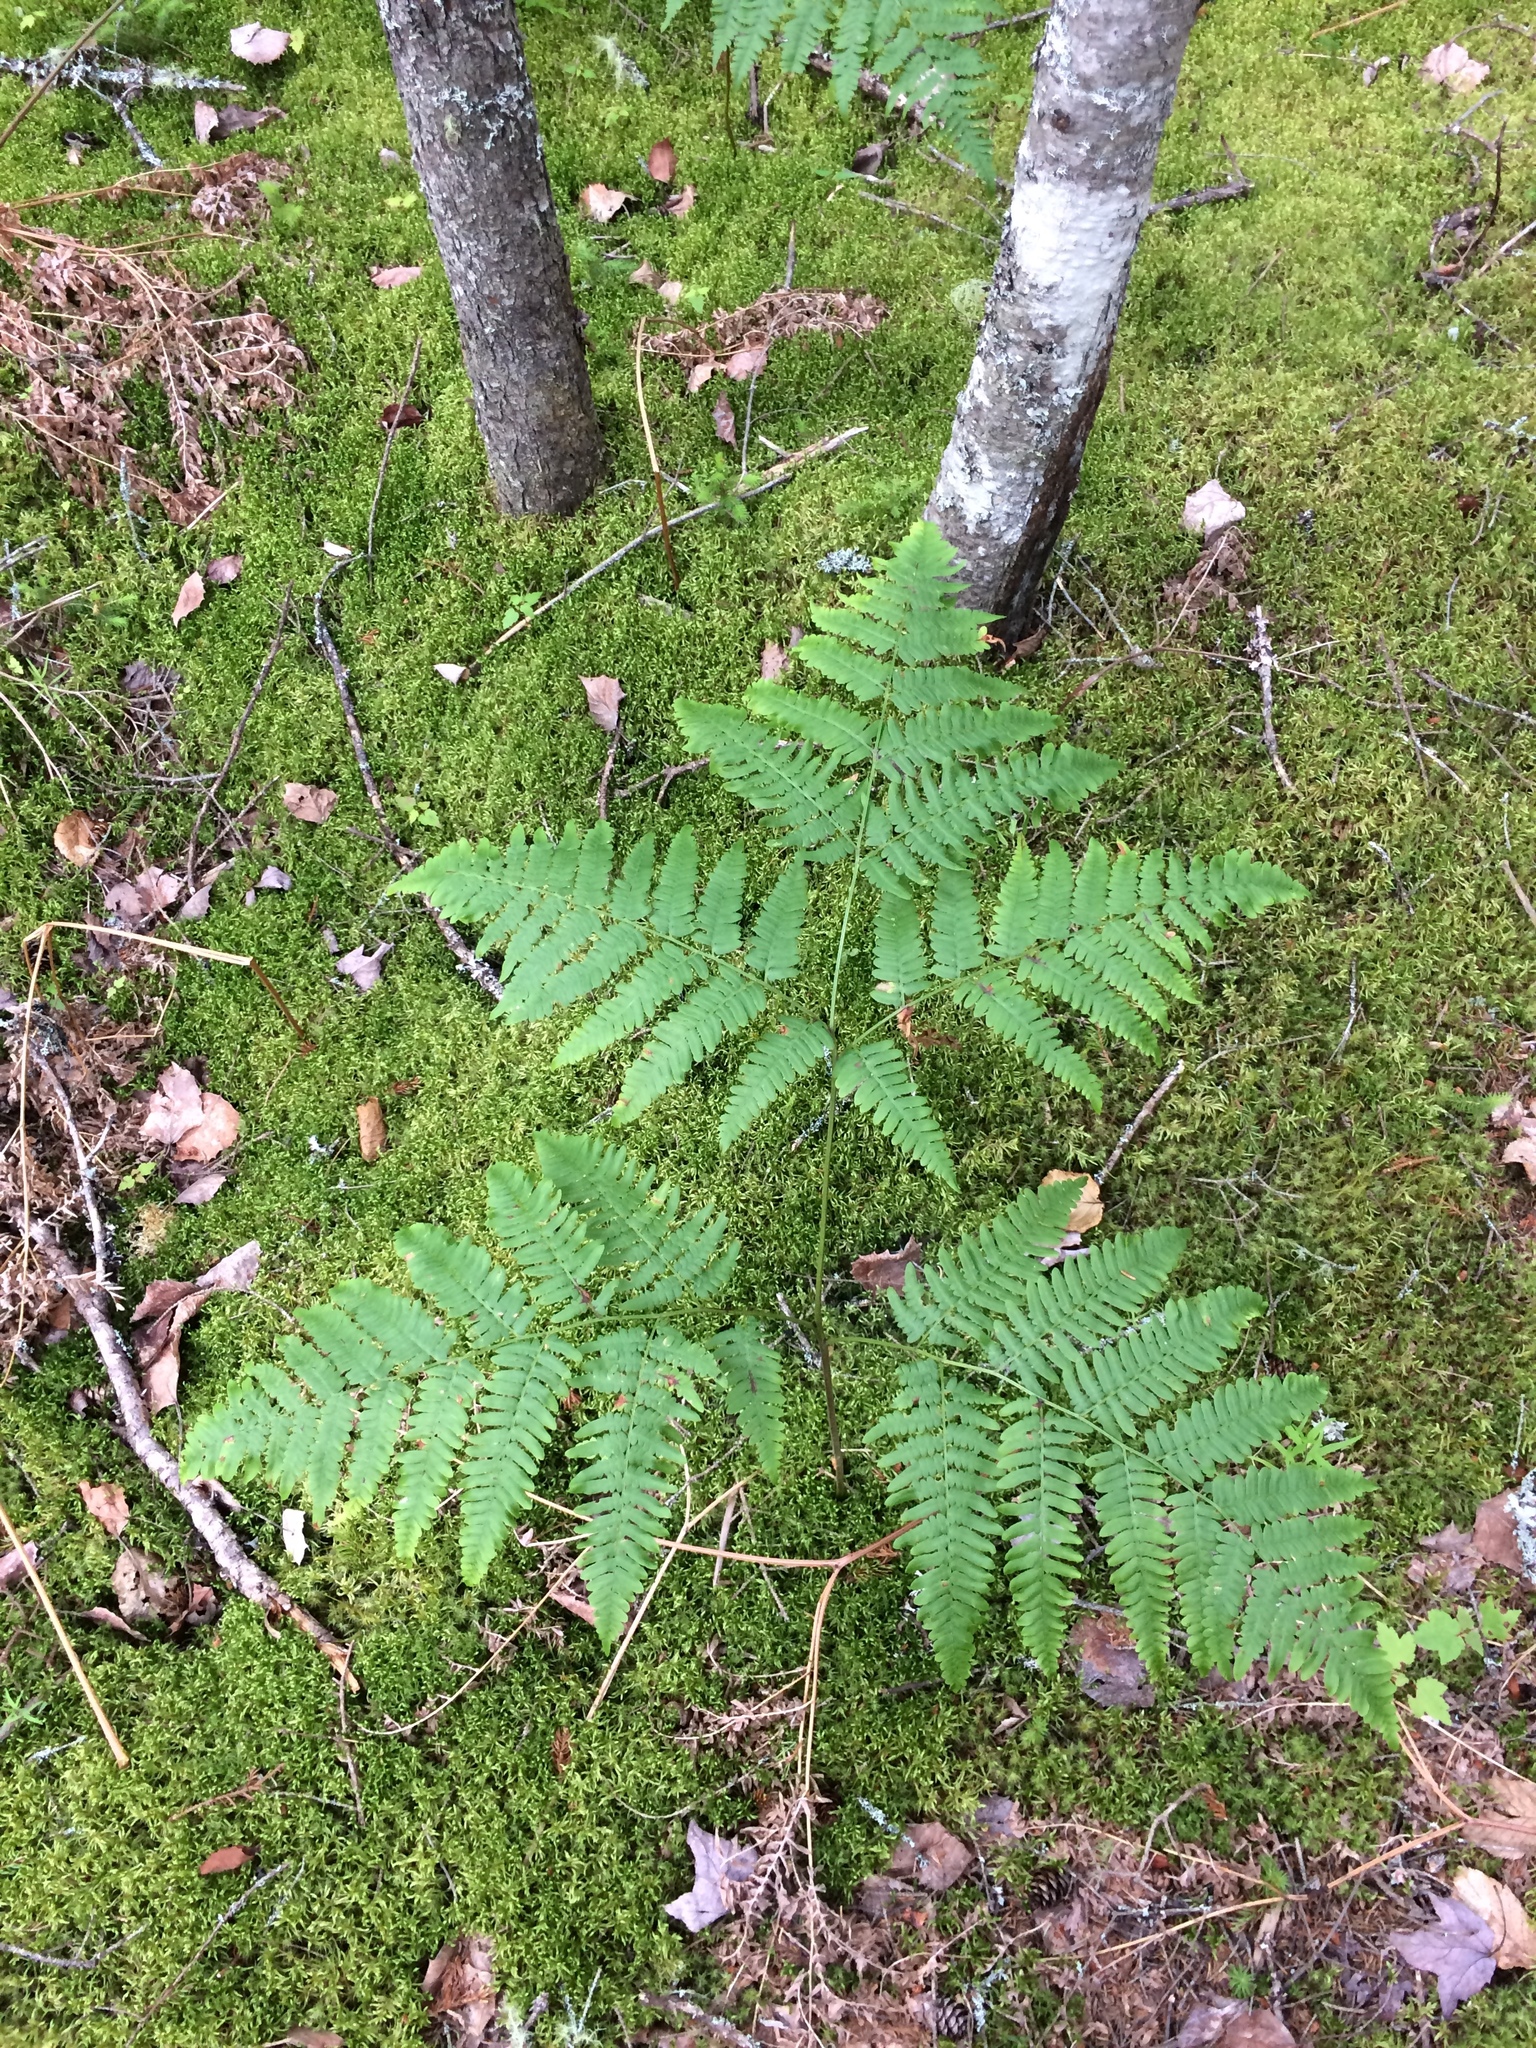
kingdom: Plantae
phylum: Tracheophyta
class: Polypodiopsida
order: Polypodiales
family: Dennstaedtiaceae
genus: Pteridium
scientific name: Pteridium aquilinum
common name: Bracken
